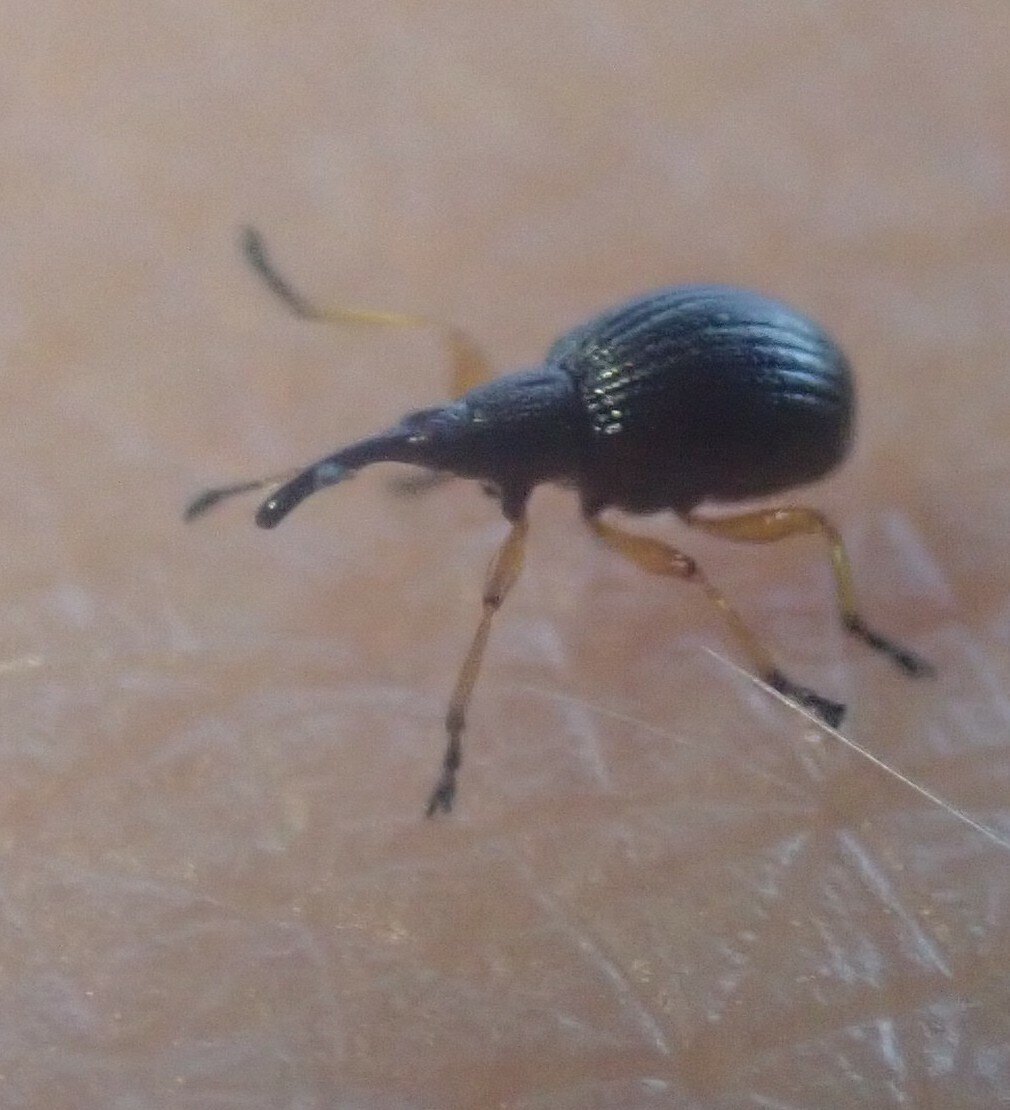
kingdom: Animalia
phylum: Arthropoda
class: Insecta
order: Coleoptera
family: Apionidae
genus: Protapion
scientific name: Protapion fulvipes
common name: White clover seed weevil
